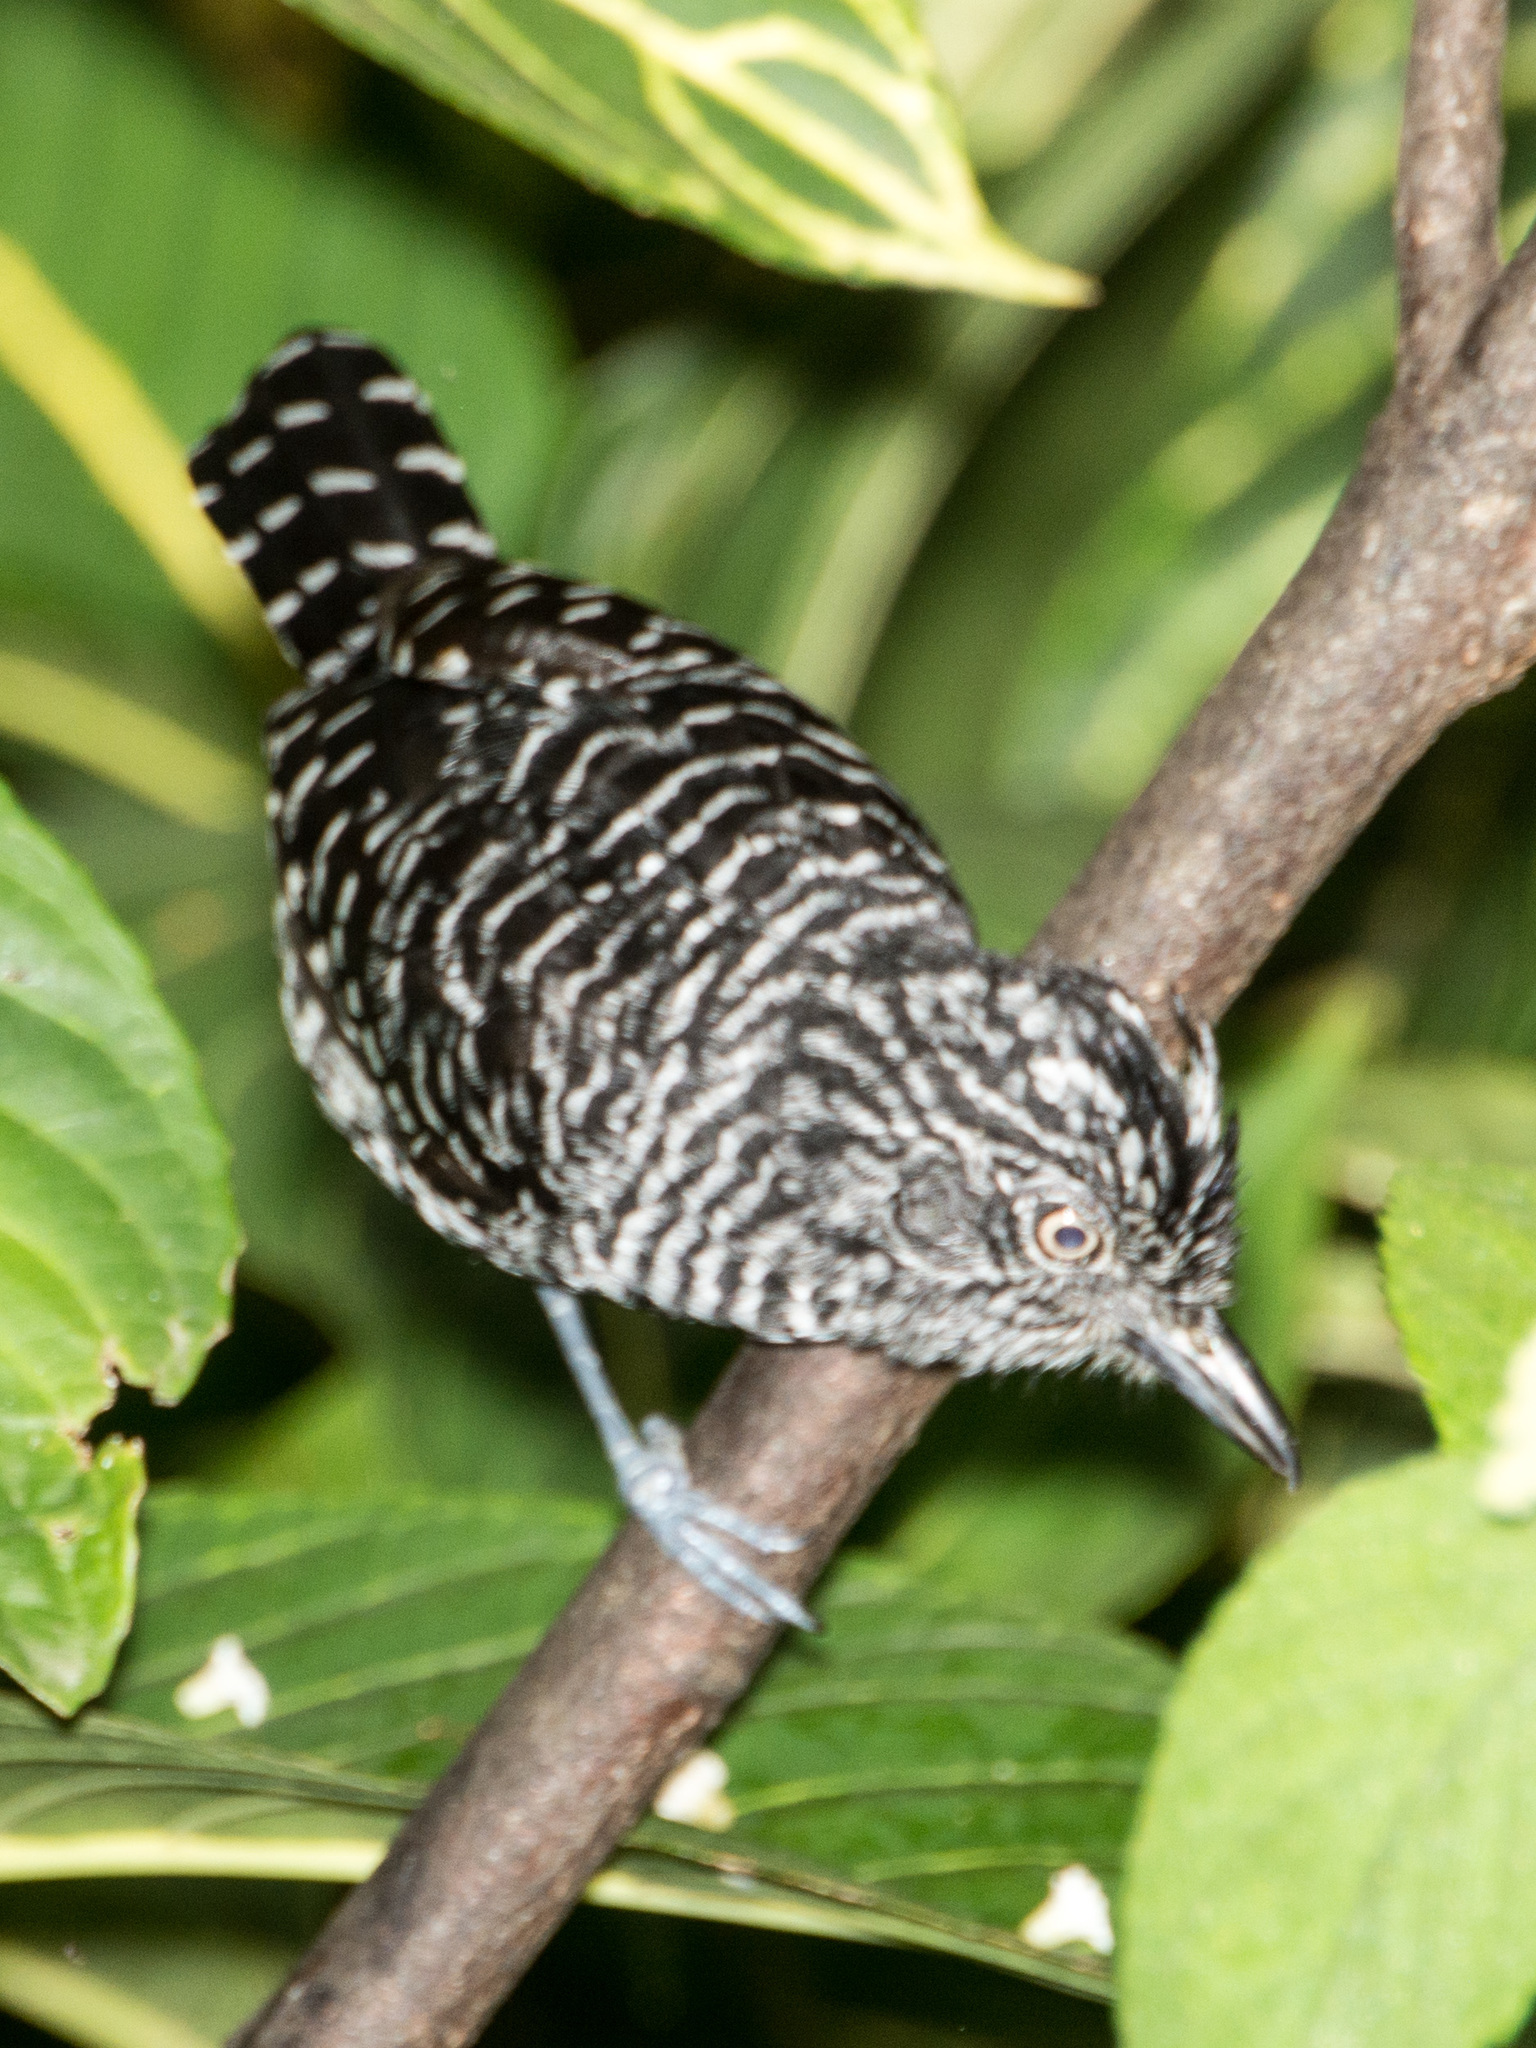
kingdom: Animalia
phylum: Chordata
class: Aves
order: Passeriformes
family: Thamnophilidae
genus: Thamnophilus
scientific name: Thamnophilus doliatus
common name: Barred antshrike
